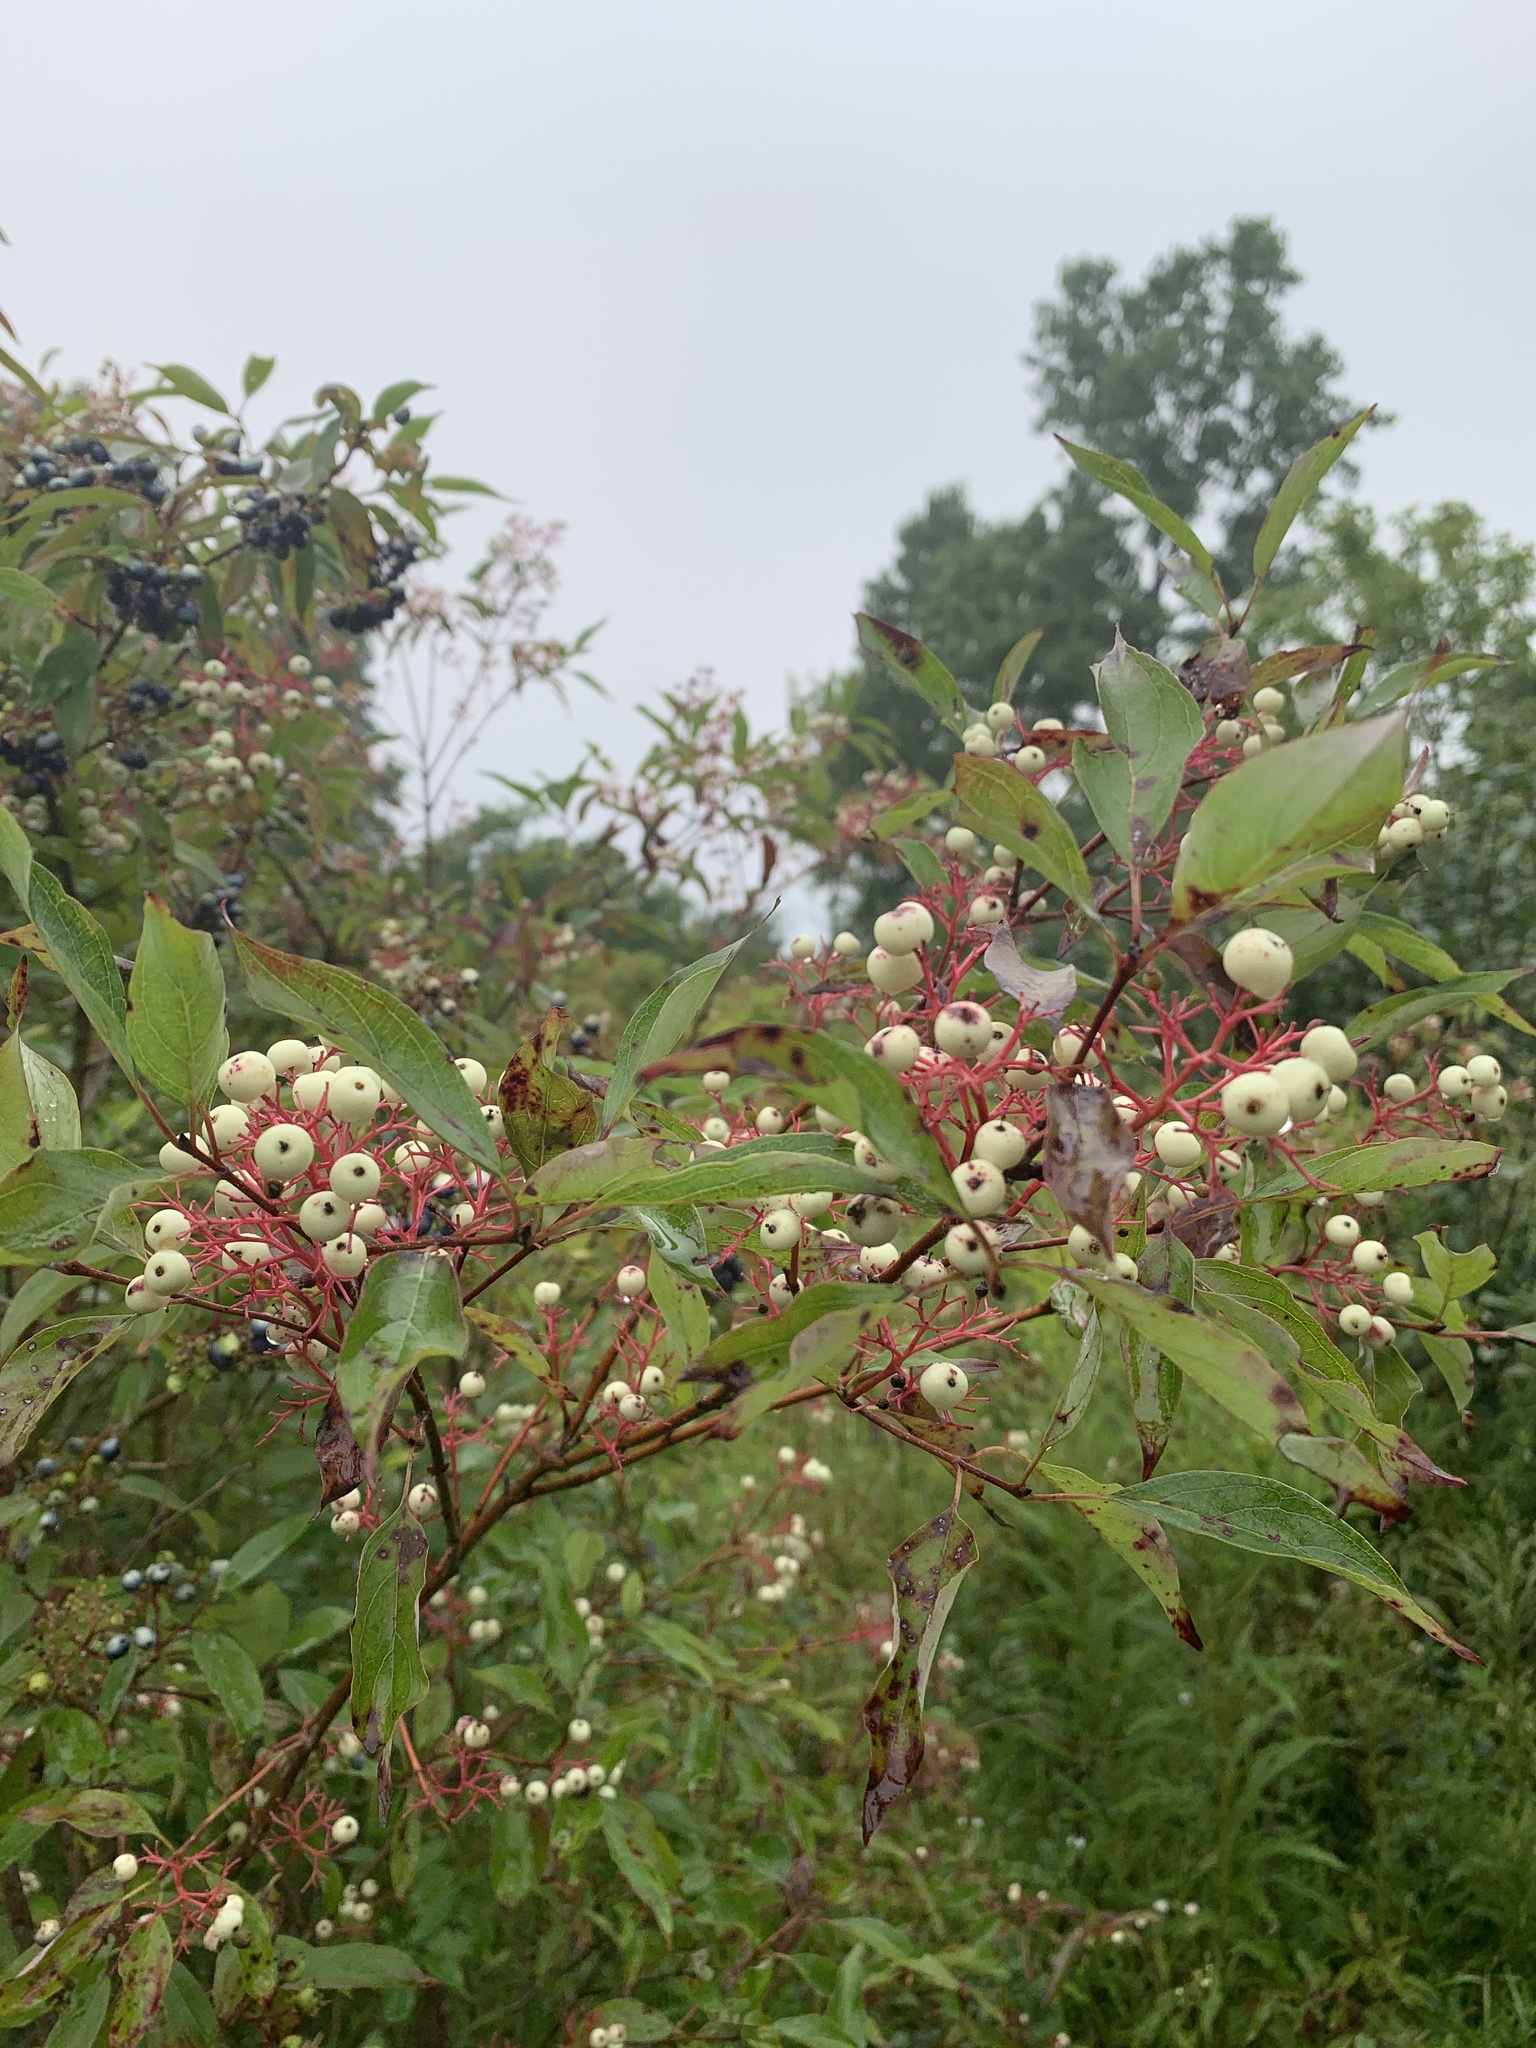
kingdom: Plantae
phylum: Tracheophyta
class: Magnoliopsida
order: Cornales
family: Cornaceae
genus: Cornus
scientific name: Cornus racemosa
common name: Panicled dogwood
